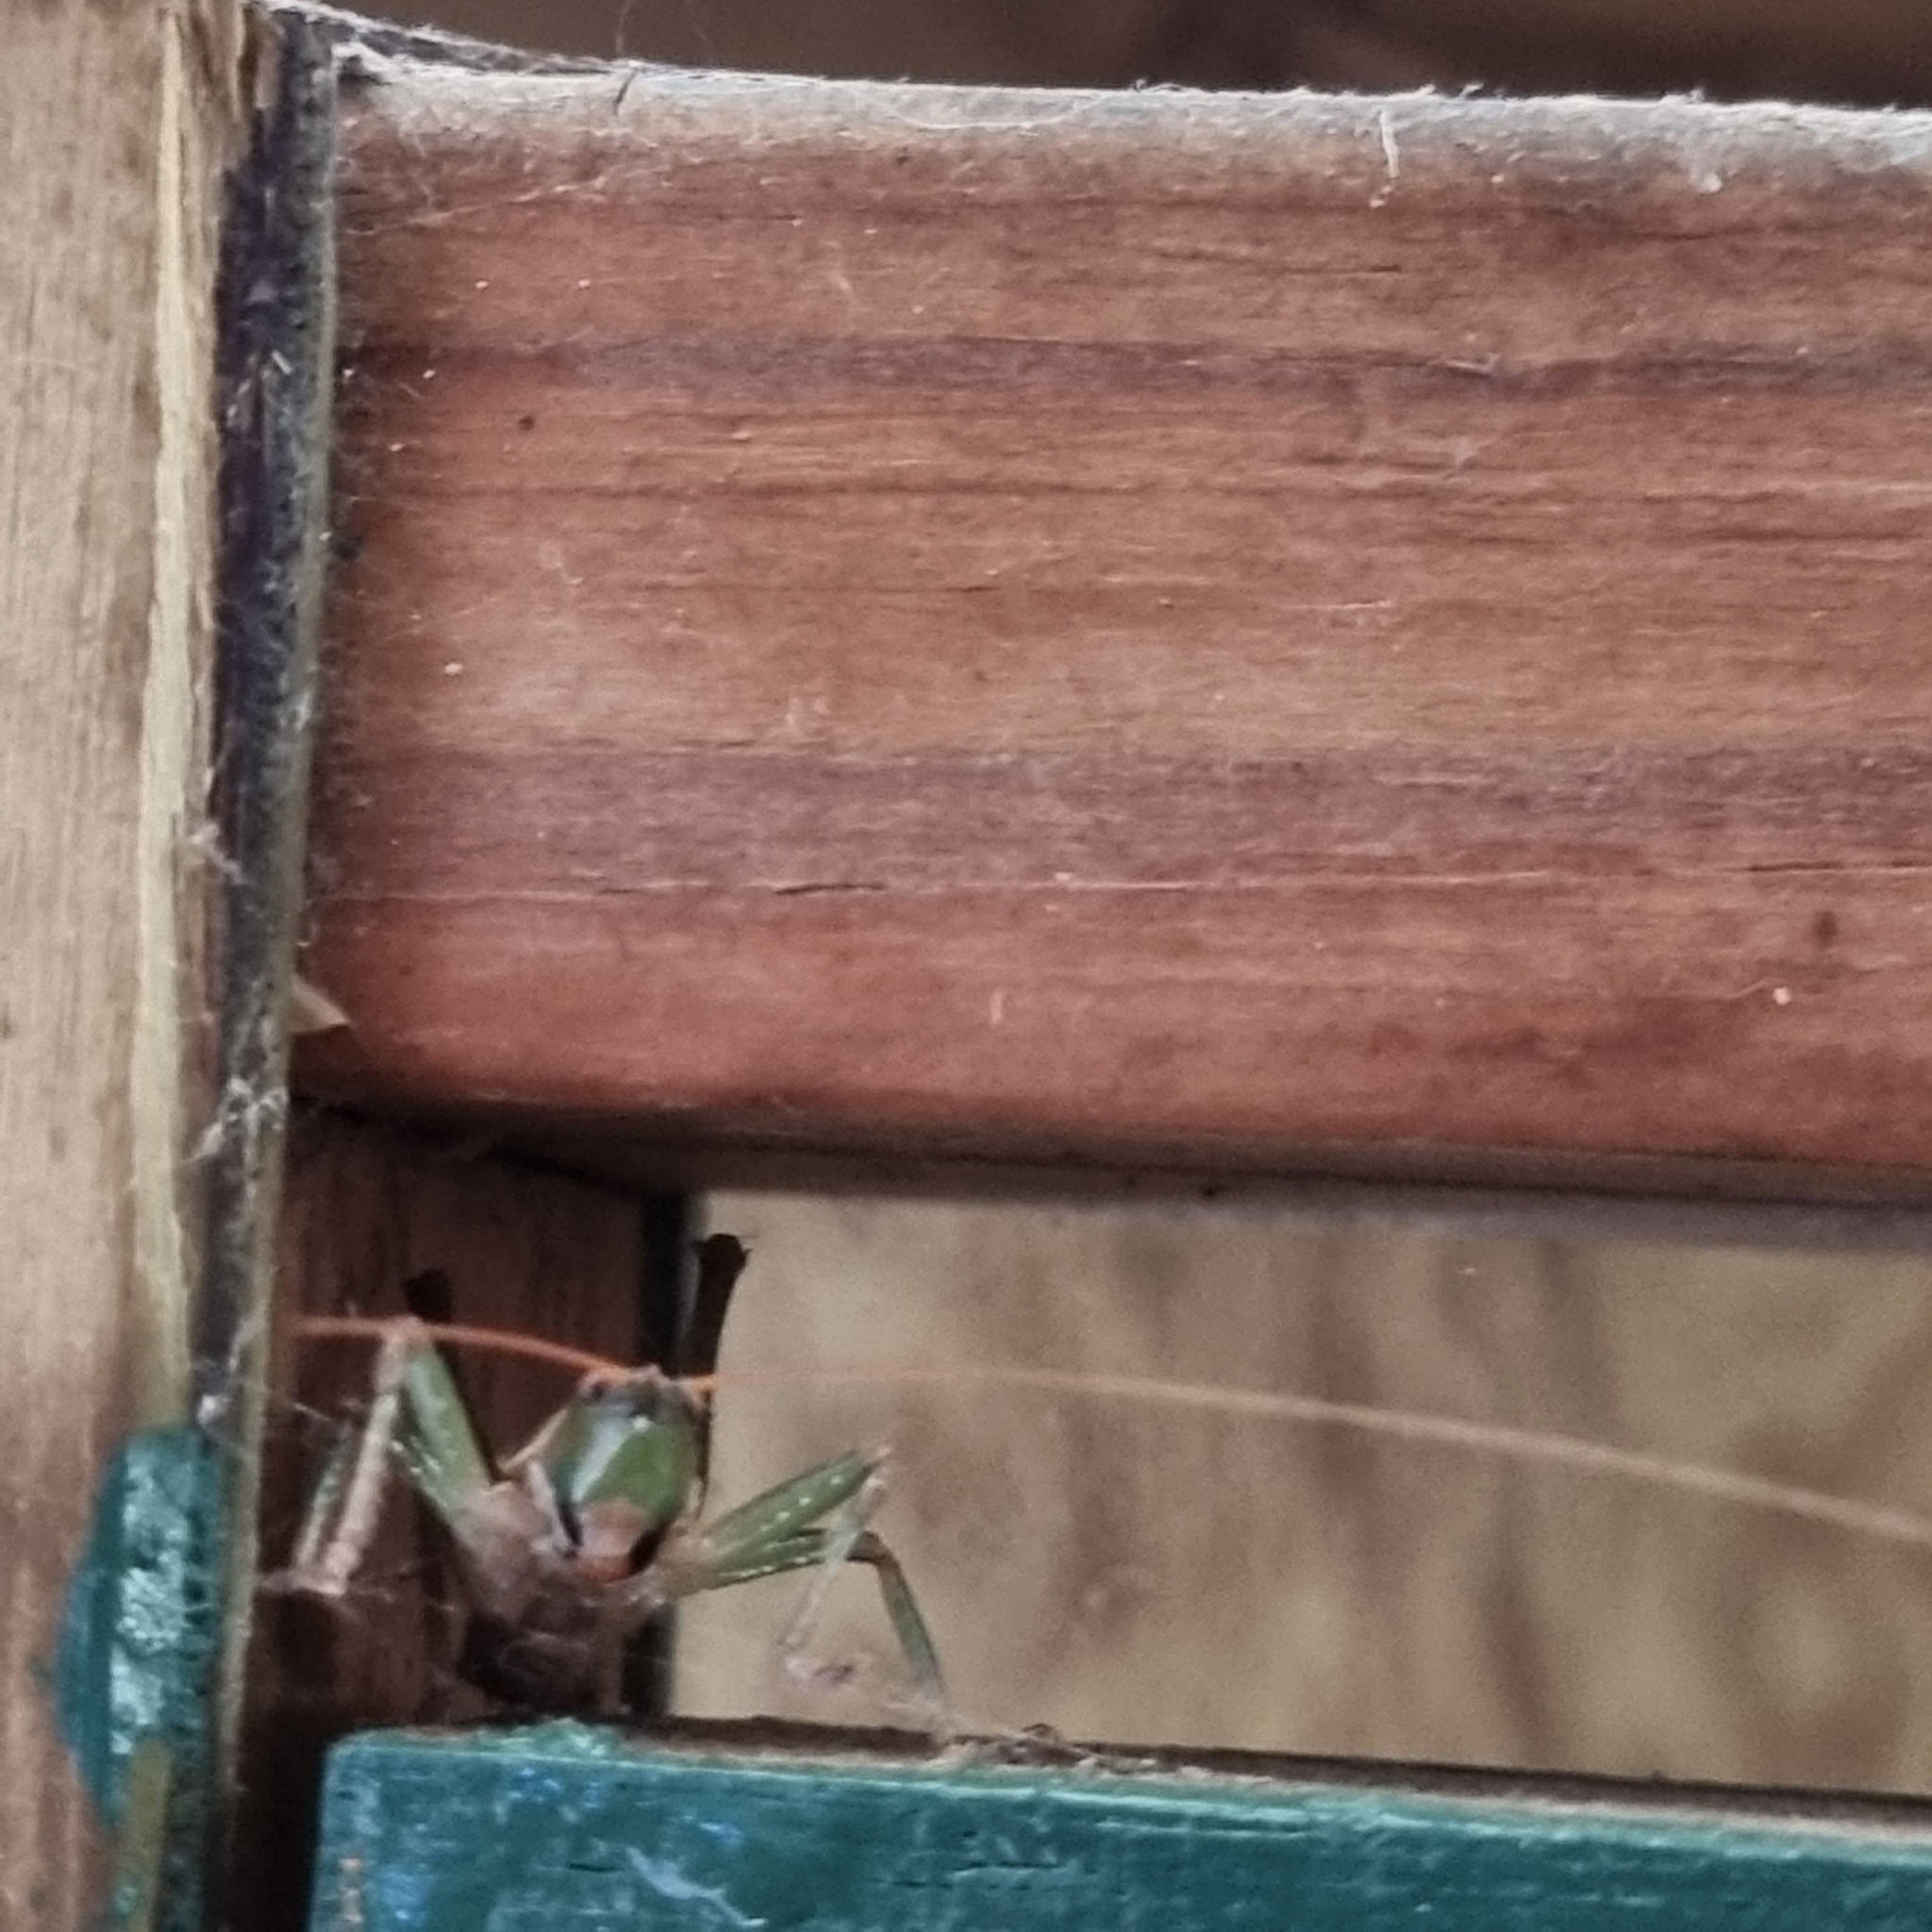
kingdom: Animalia
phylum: Arthropoda
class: Insecta
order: Orthoptera
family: Tettigoniidae
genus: Austrosalomona
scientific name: Austrosalomona falcata
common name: Olive-green coastal katydid
